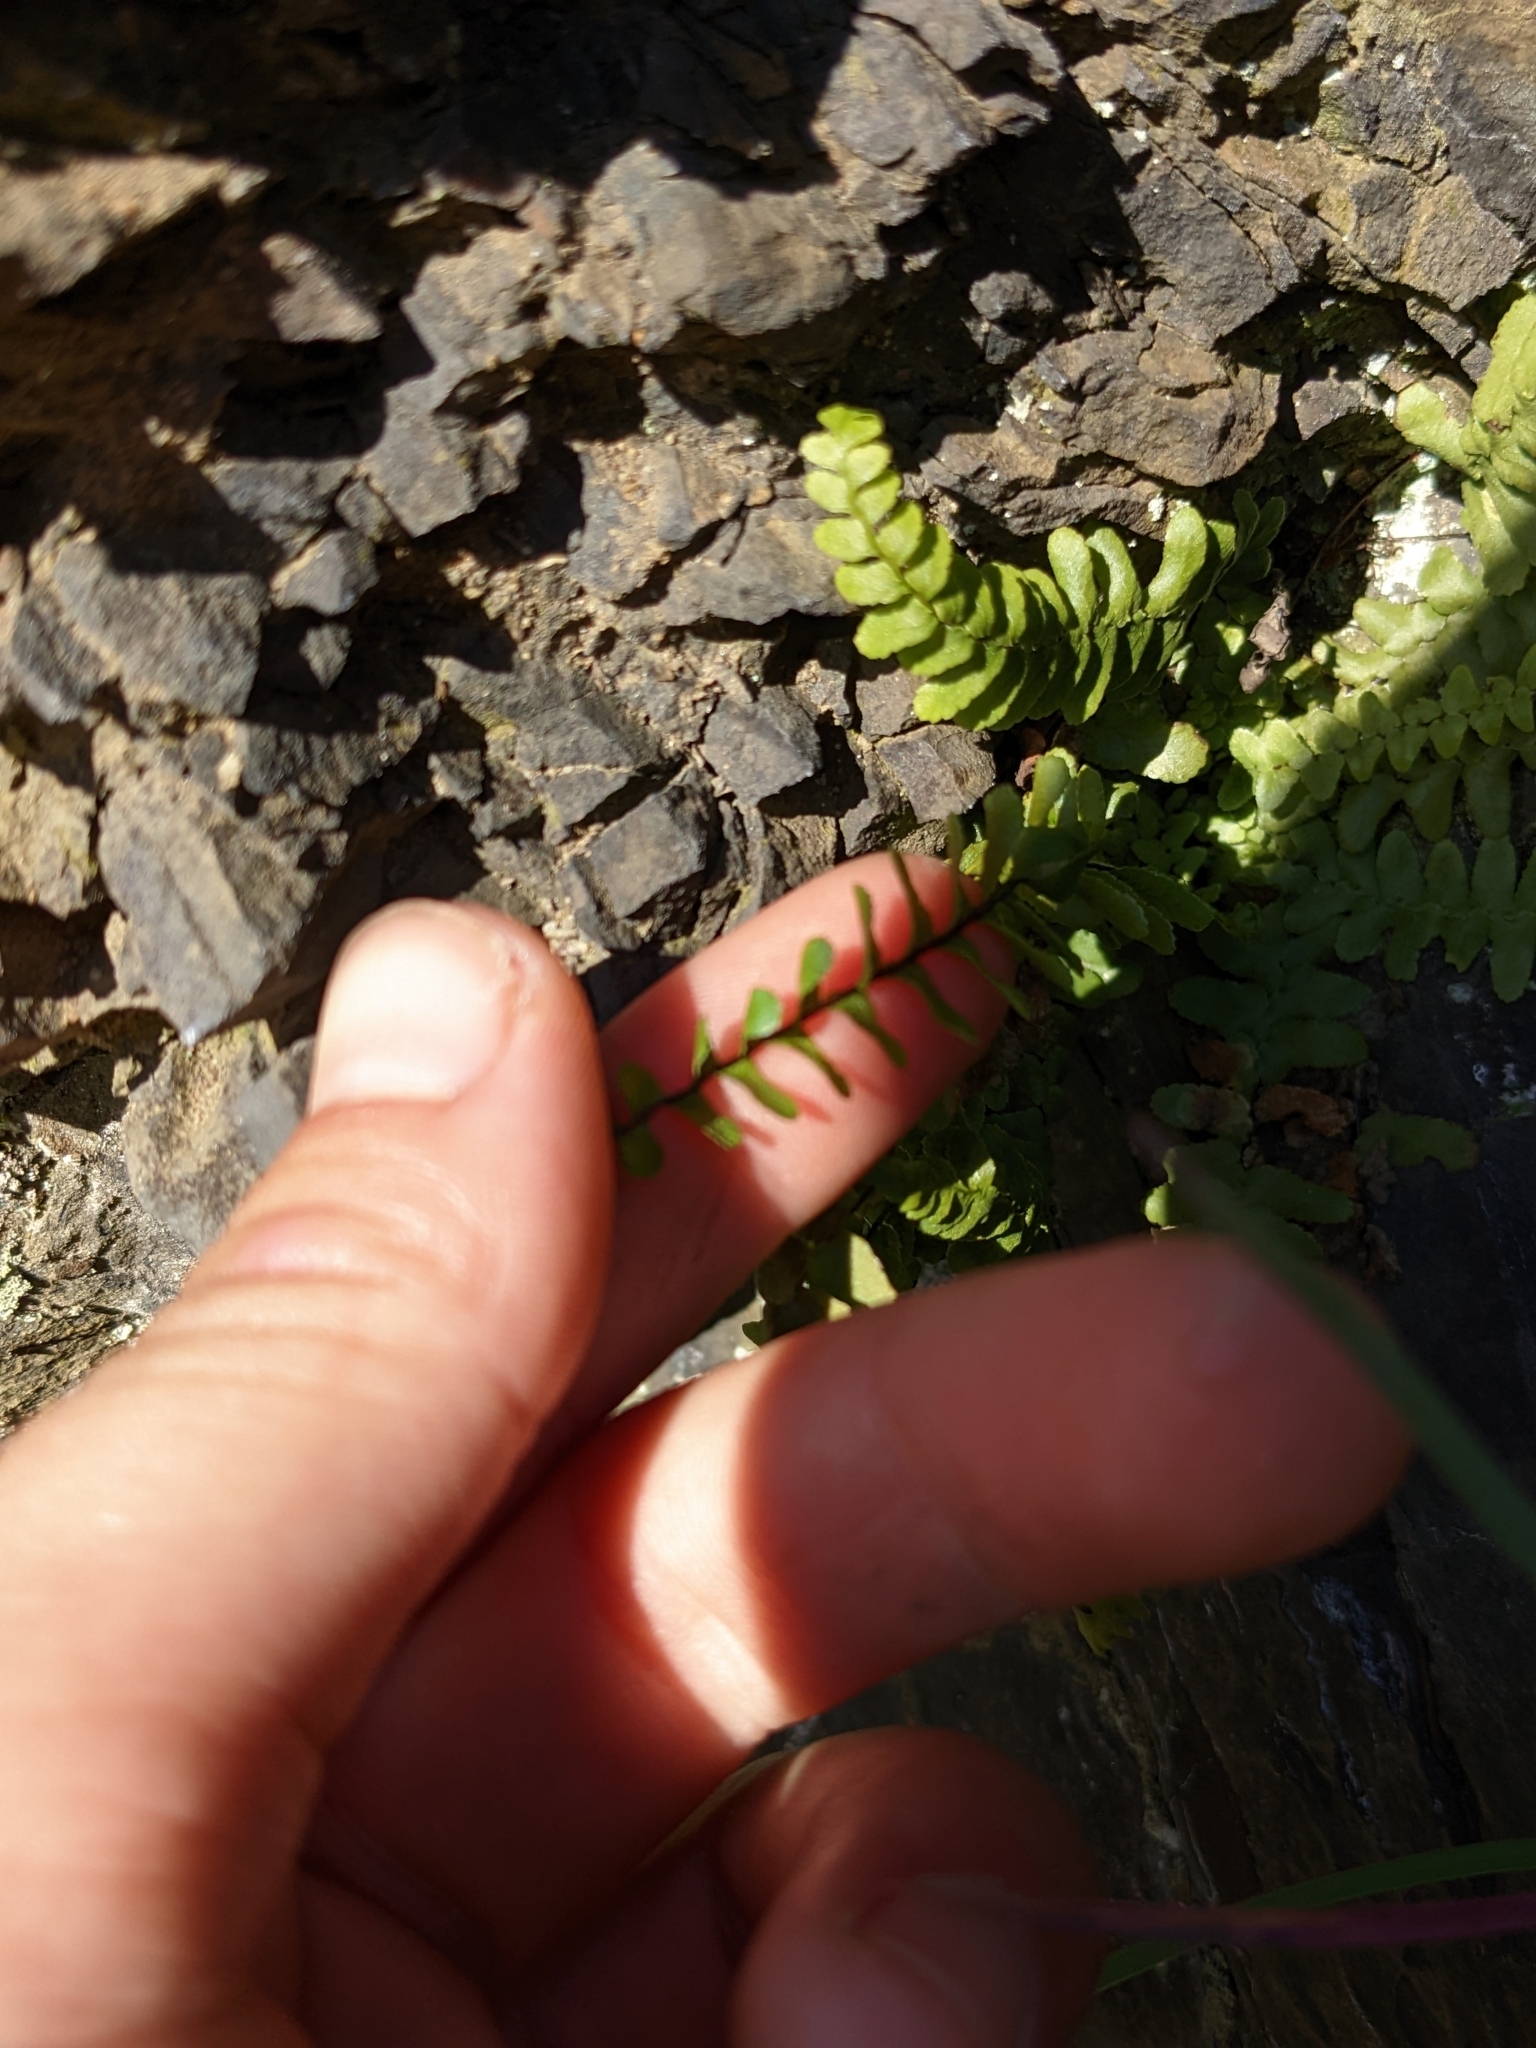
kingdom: Plantae
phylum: Tracheophyta
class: Polypodiopsida
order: Polypodiales
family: Aspleniaceae
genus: Asplenium
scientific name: Asplenium platyneuron
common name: Ebony spleenwort
